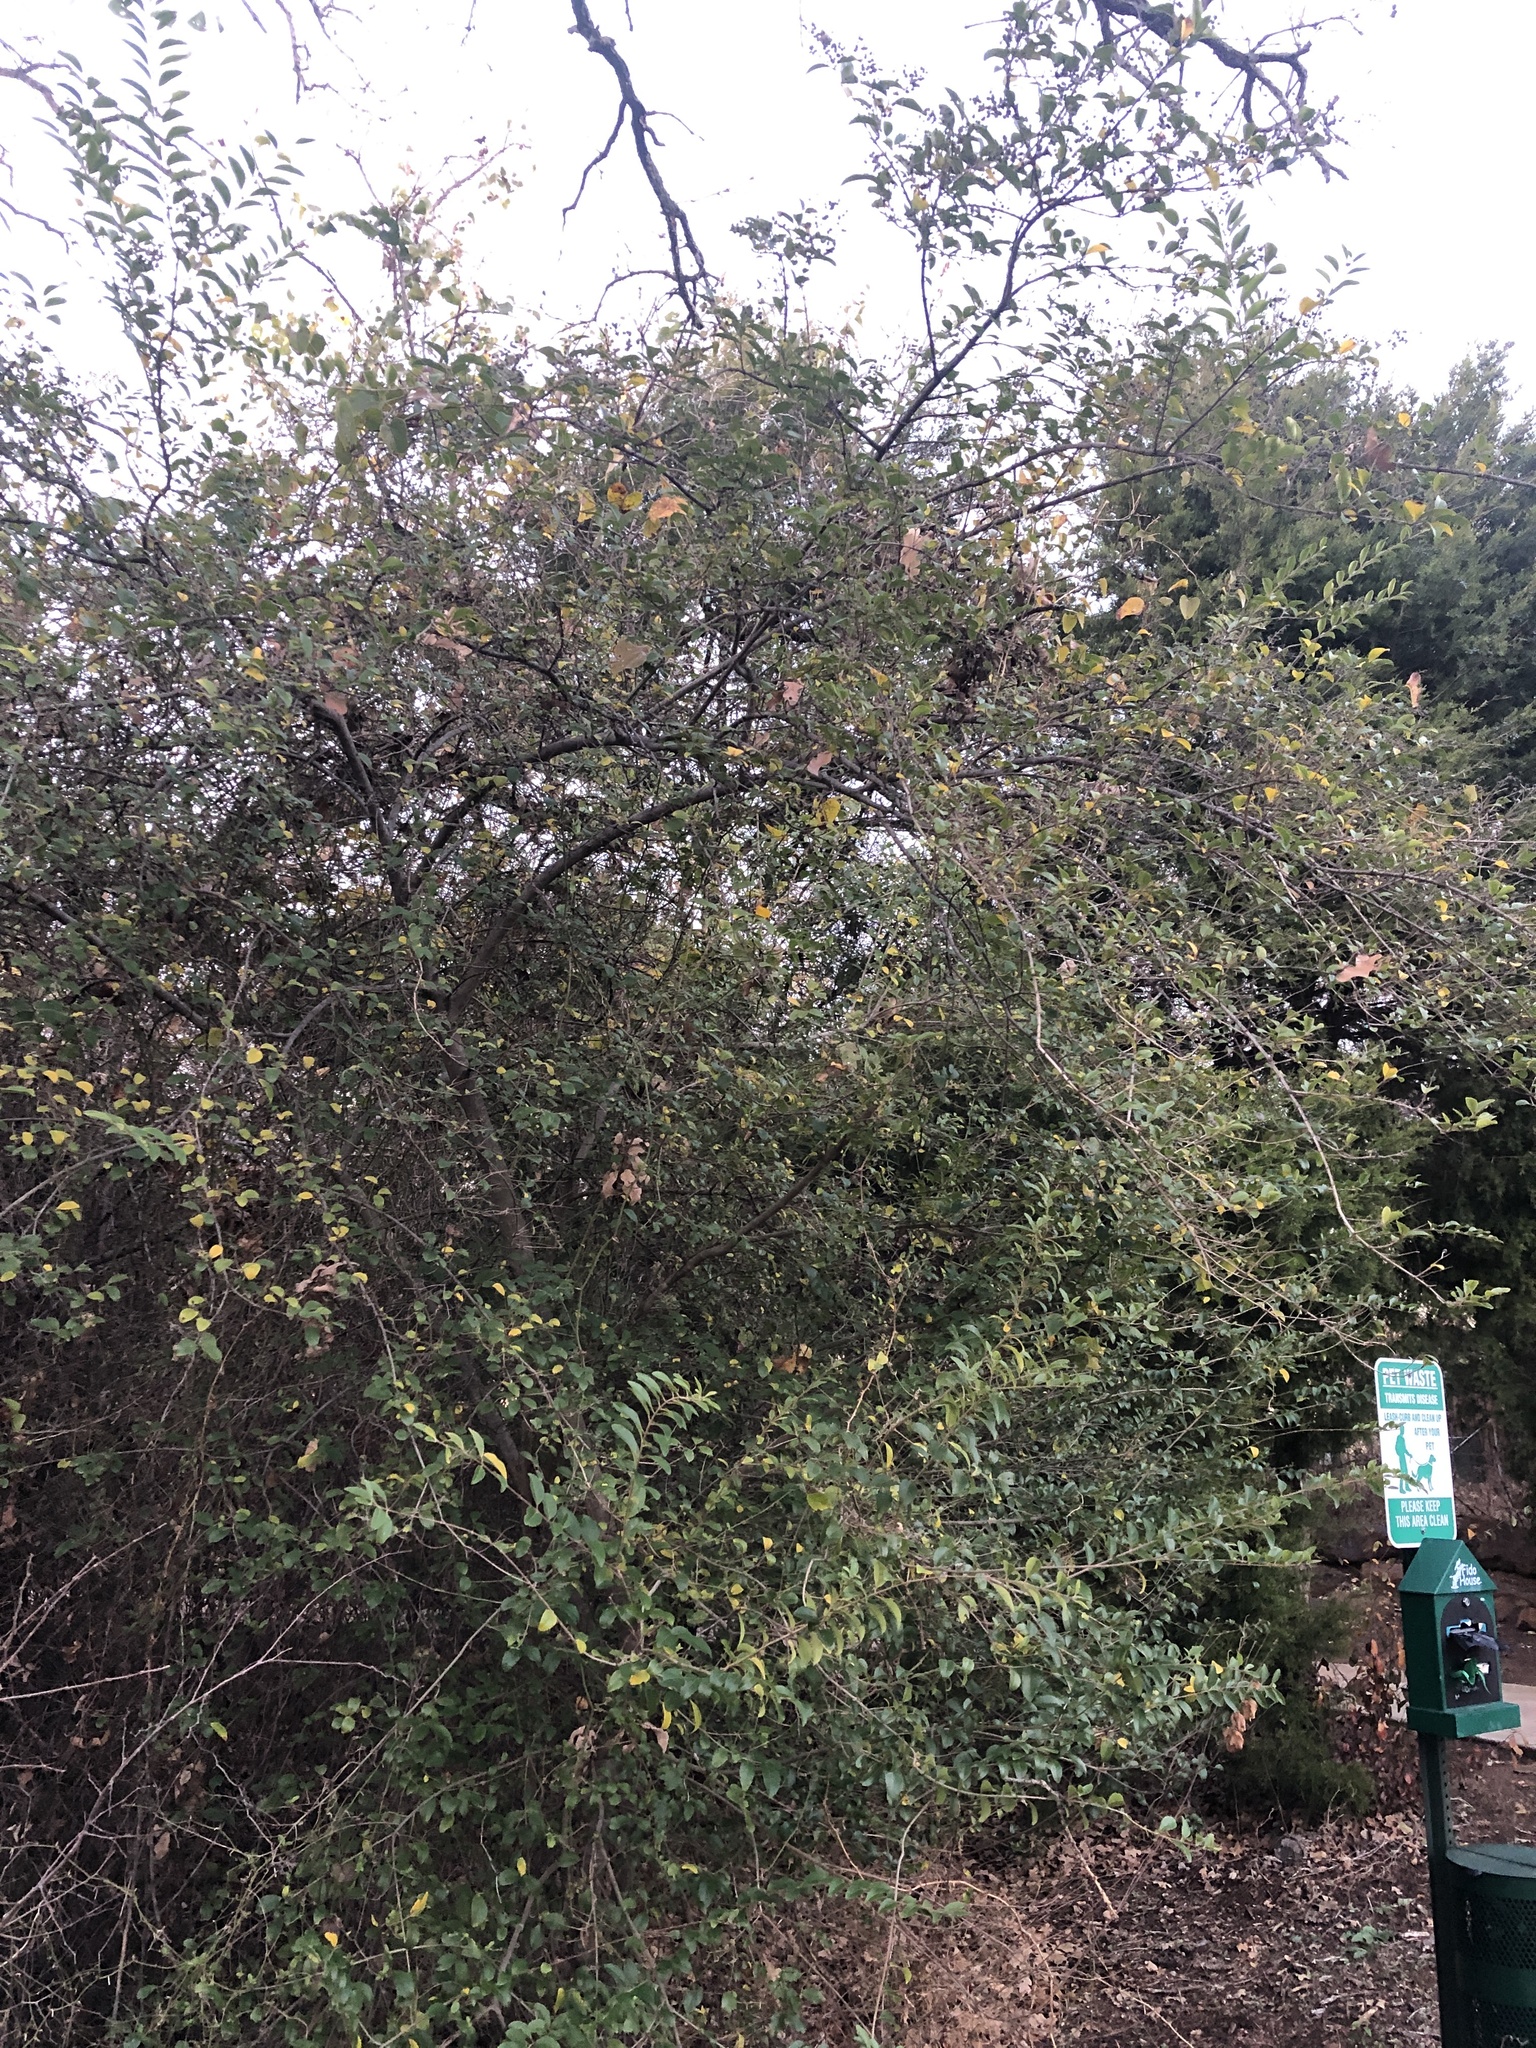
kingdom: Plantae
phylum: Tracheophyta
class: Magnoliopsida
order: Lamiales
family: Oleaceae
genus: Ligustrum
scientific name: Ligustrum sinense
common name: Chinese privet
